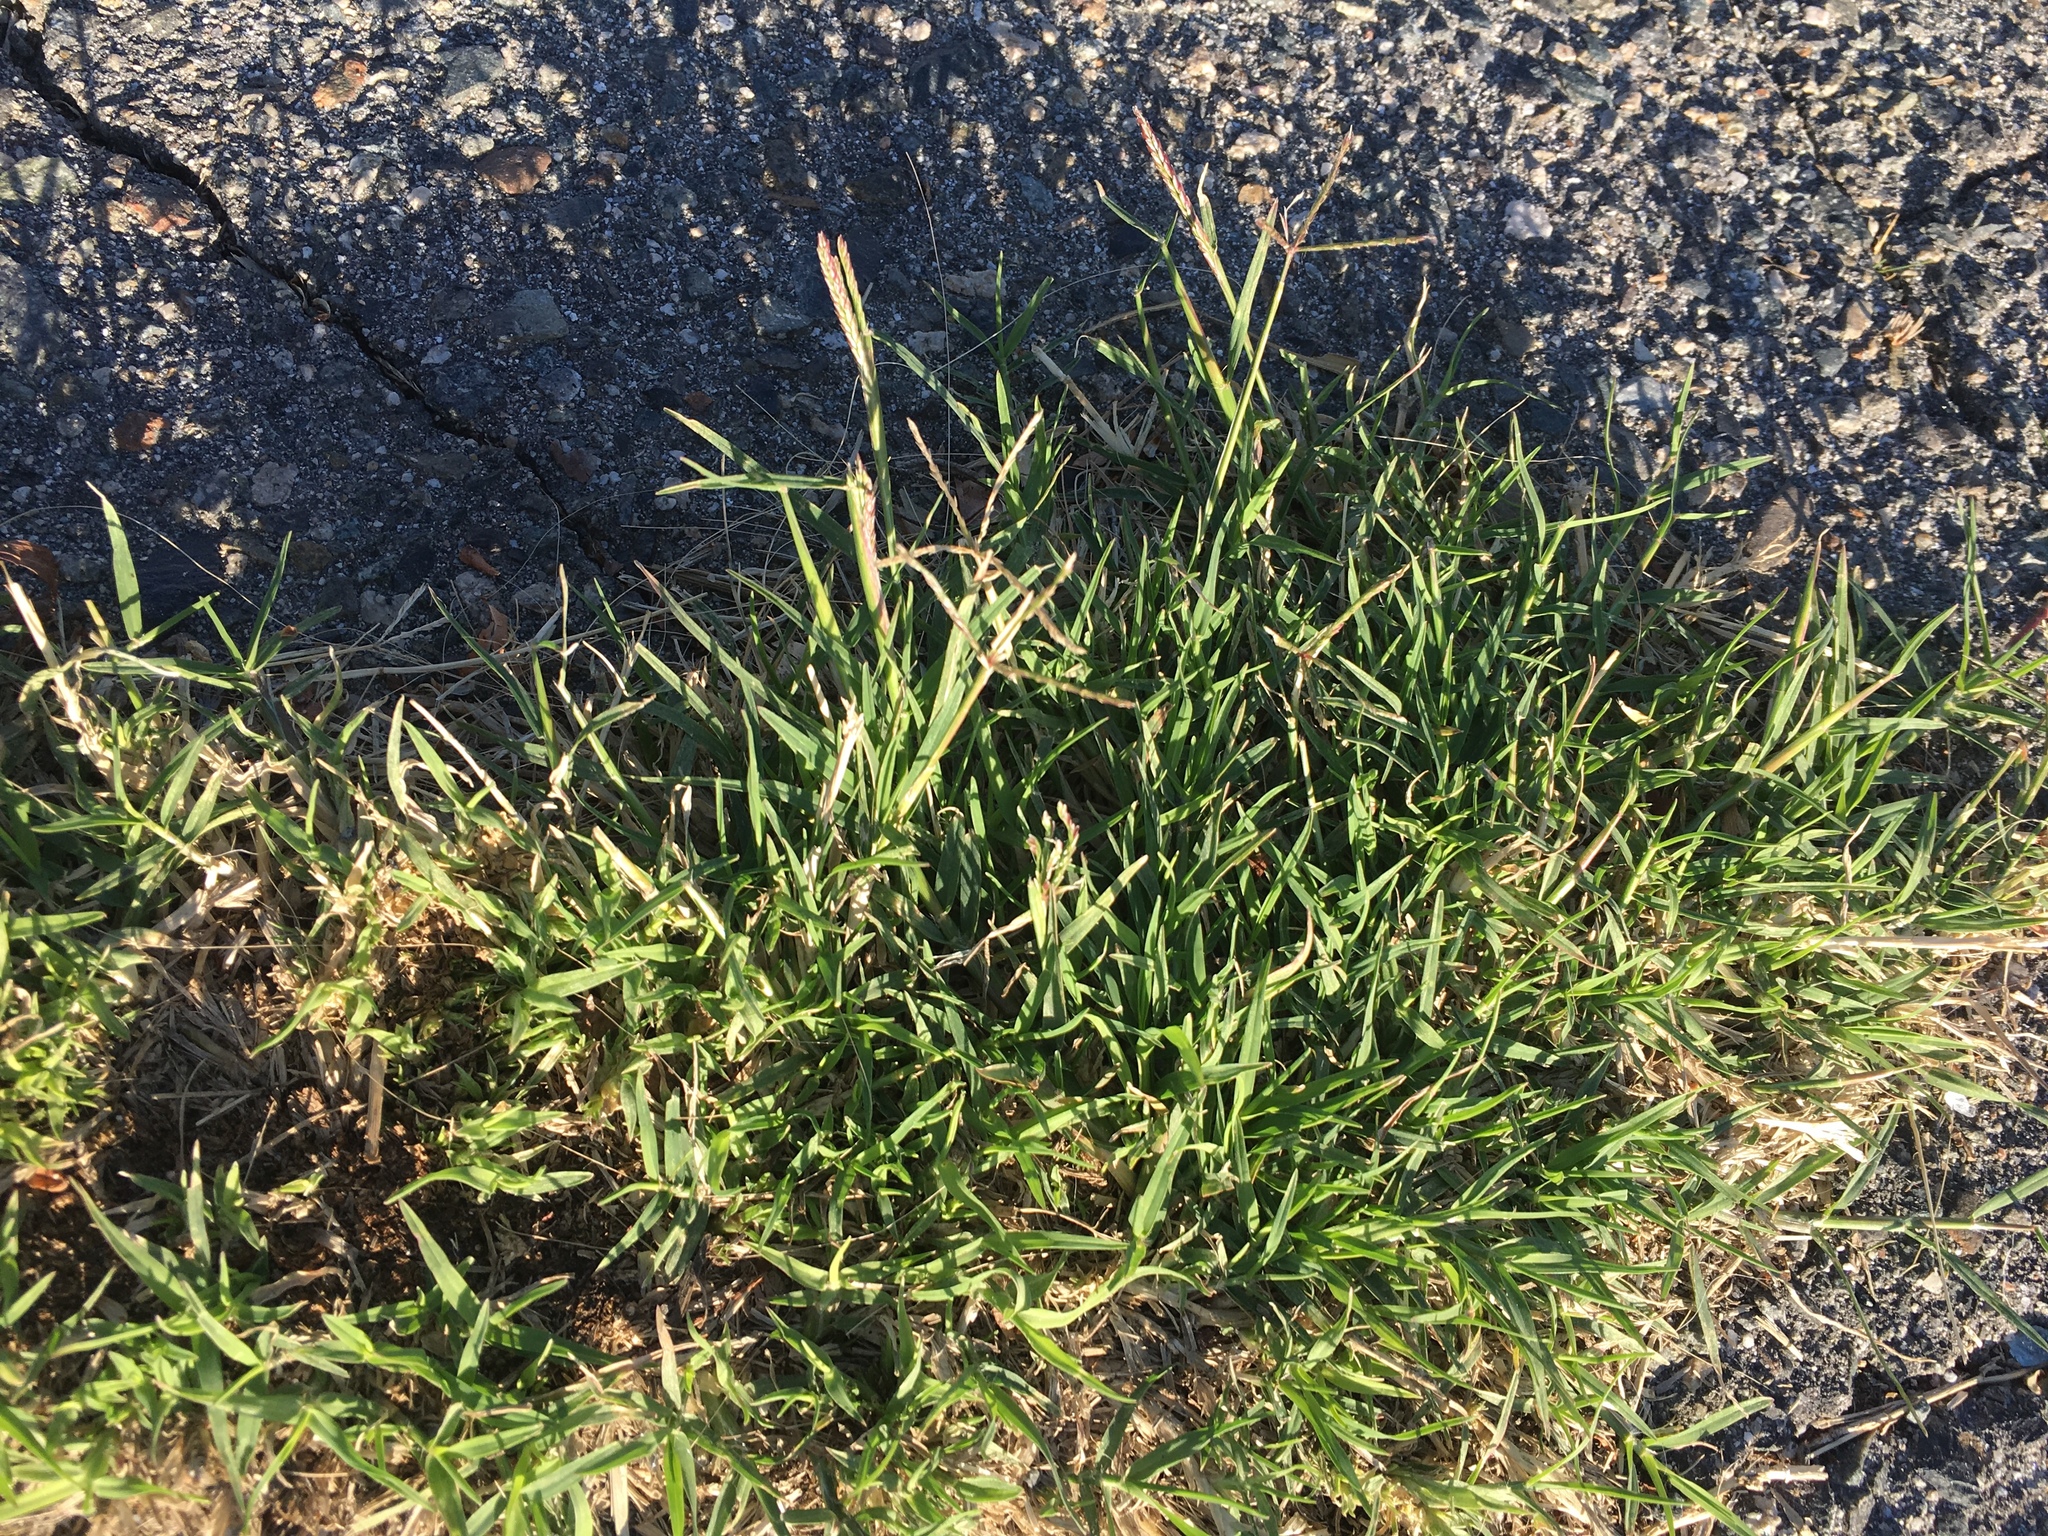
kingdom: Plantae
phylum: Tracheophyta
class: Liliopsida
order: Poales
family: Poaceae
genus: Cynodon
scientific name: Cynodon dactylon
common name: Bermuda grass
